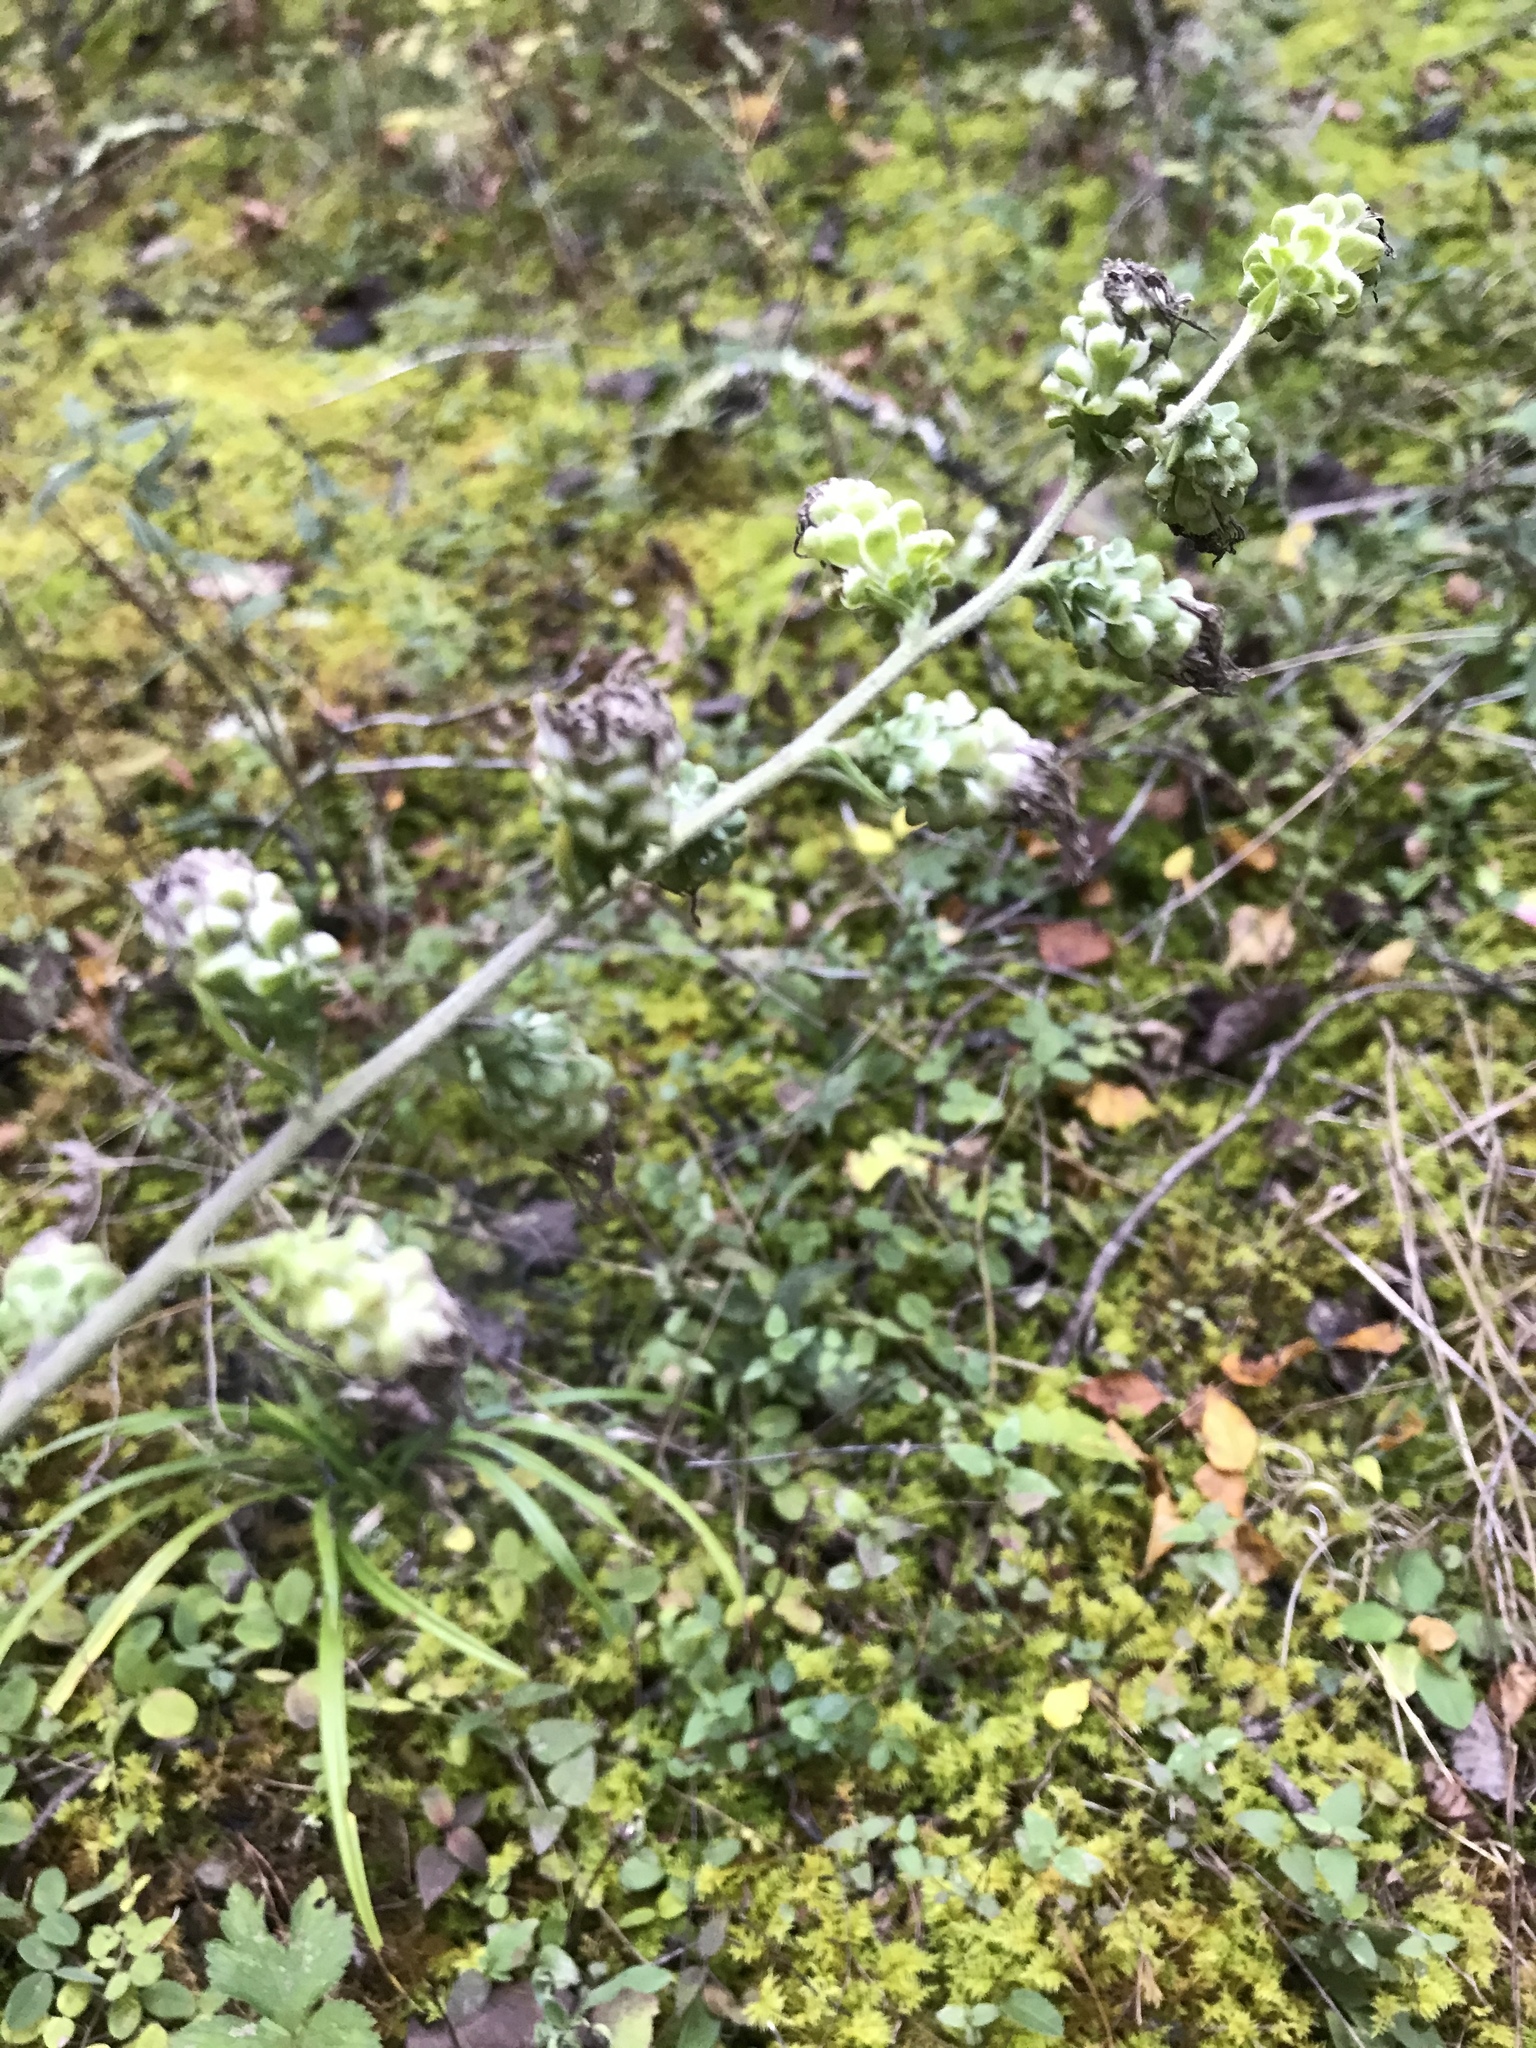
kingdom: Plantae
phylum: Tracheophyta
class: Magnoliopsida
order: Asterales
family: Asteraceae
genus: Liatris
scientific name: Liatris aspera
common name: Lacerate blazing-star
